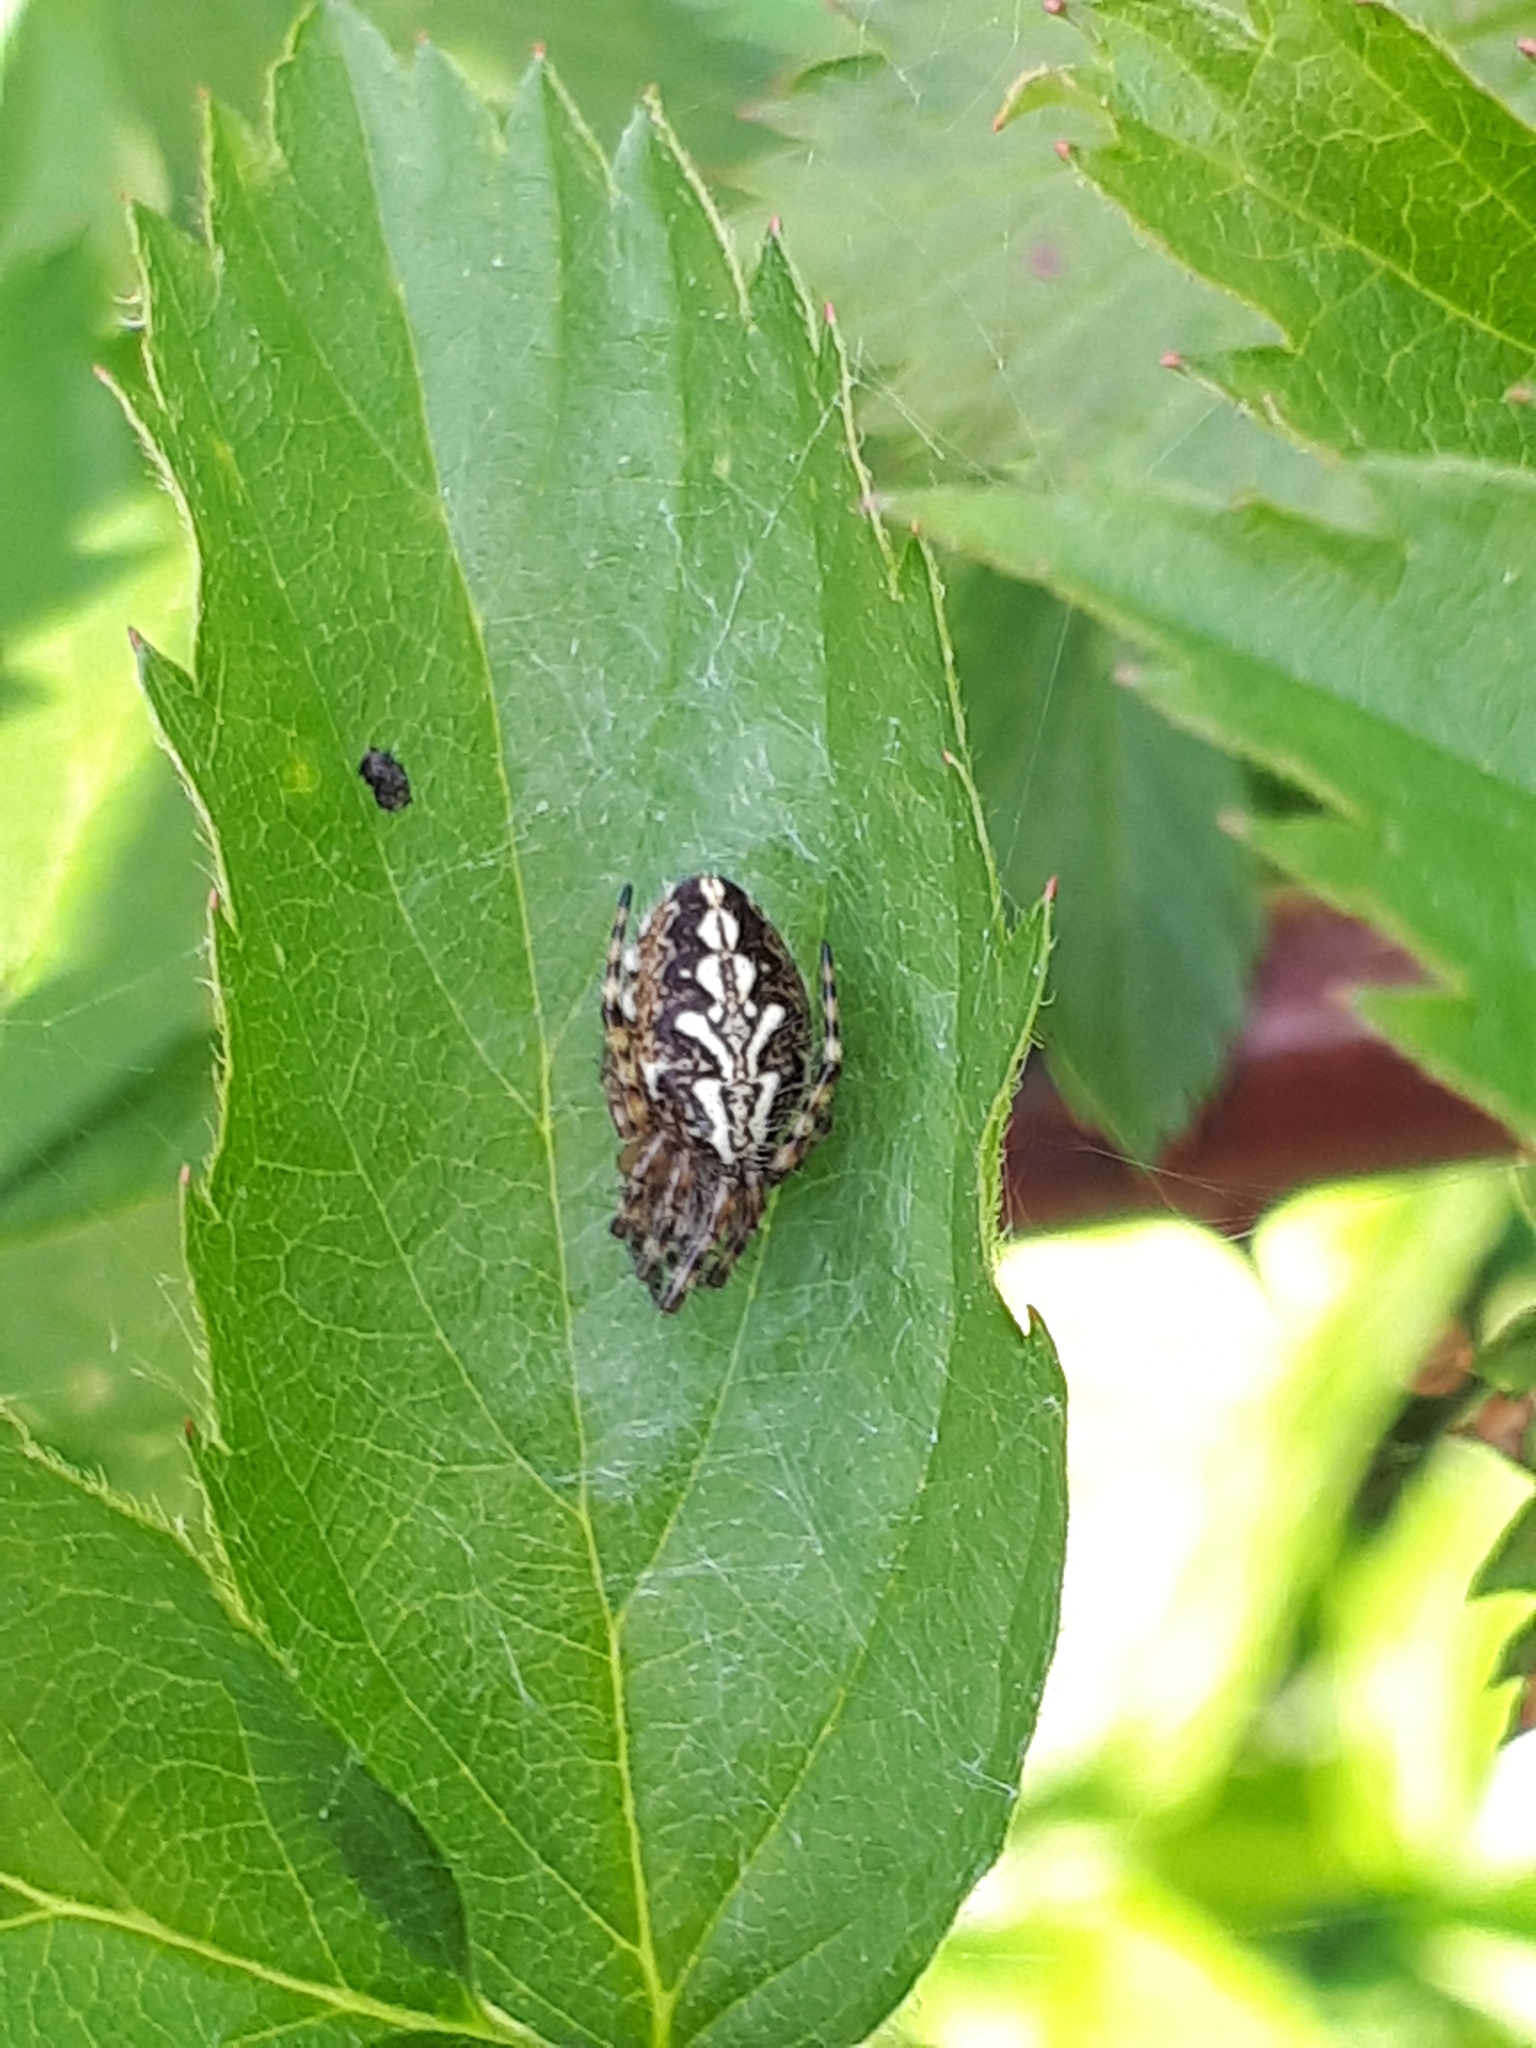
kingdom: Animalia
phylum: Arthropoda
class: Arachnida
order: Araneae
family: Araneidae
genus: Aculepeira
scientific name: Aculepeira ceropegia
